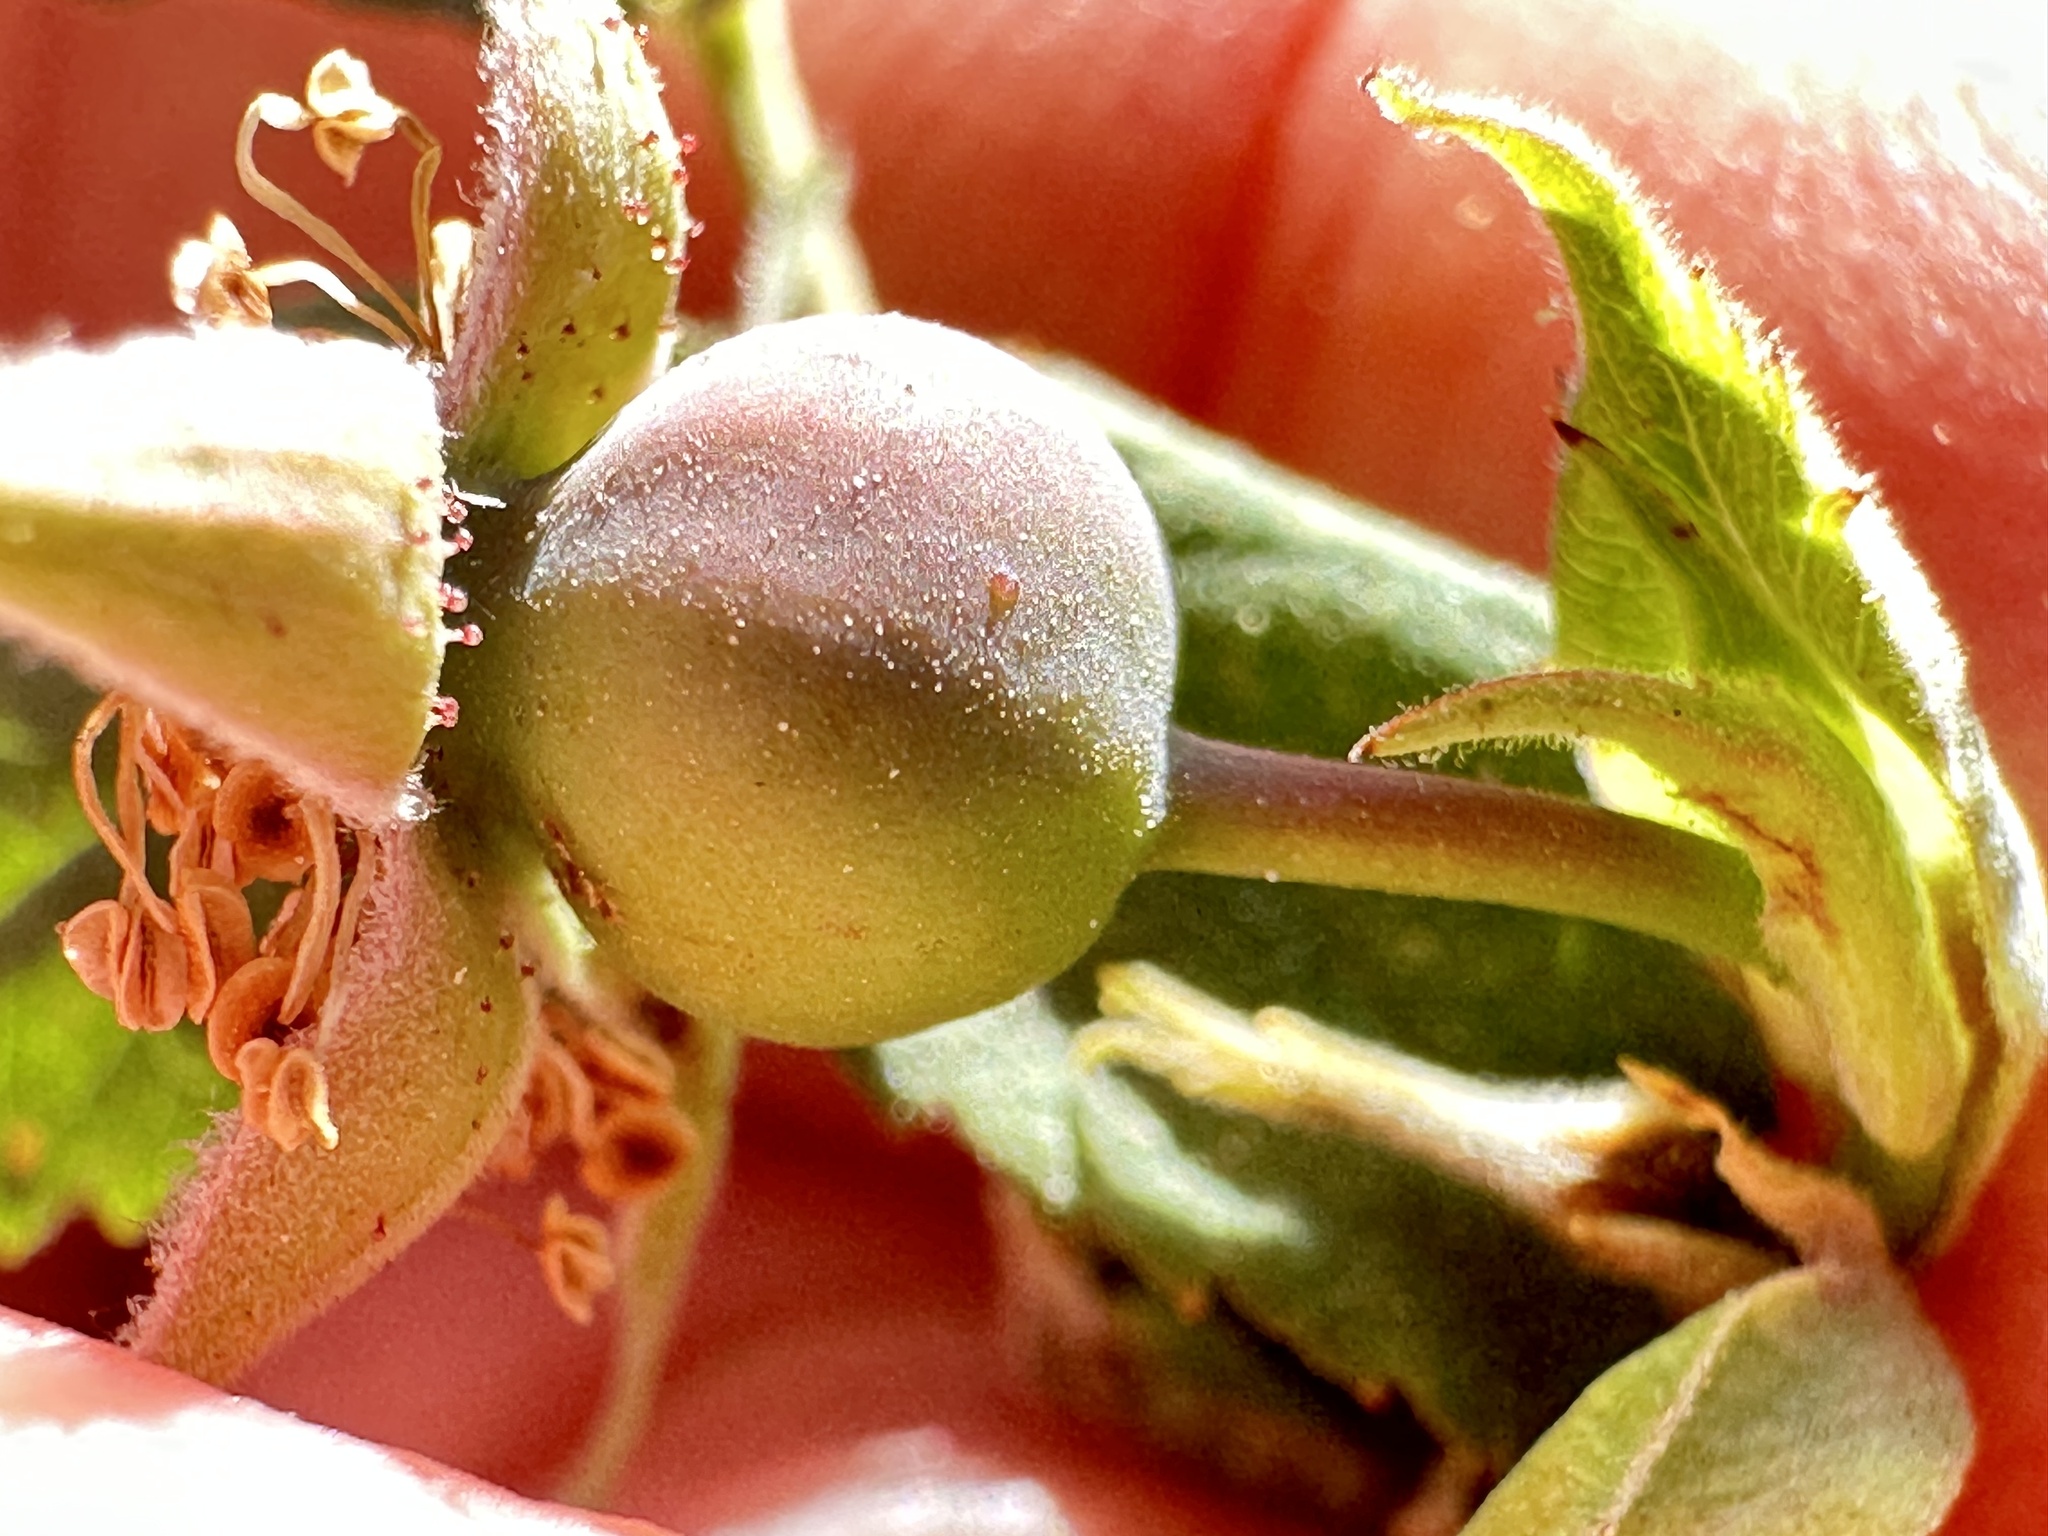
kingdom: Plantae
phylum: Tracheophyta
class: Magnoliopsida
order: Rosales
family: Rosaceae
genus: Rosa
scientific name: Rosa nutkana
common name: Nootka rose
